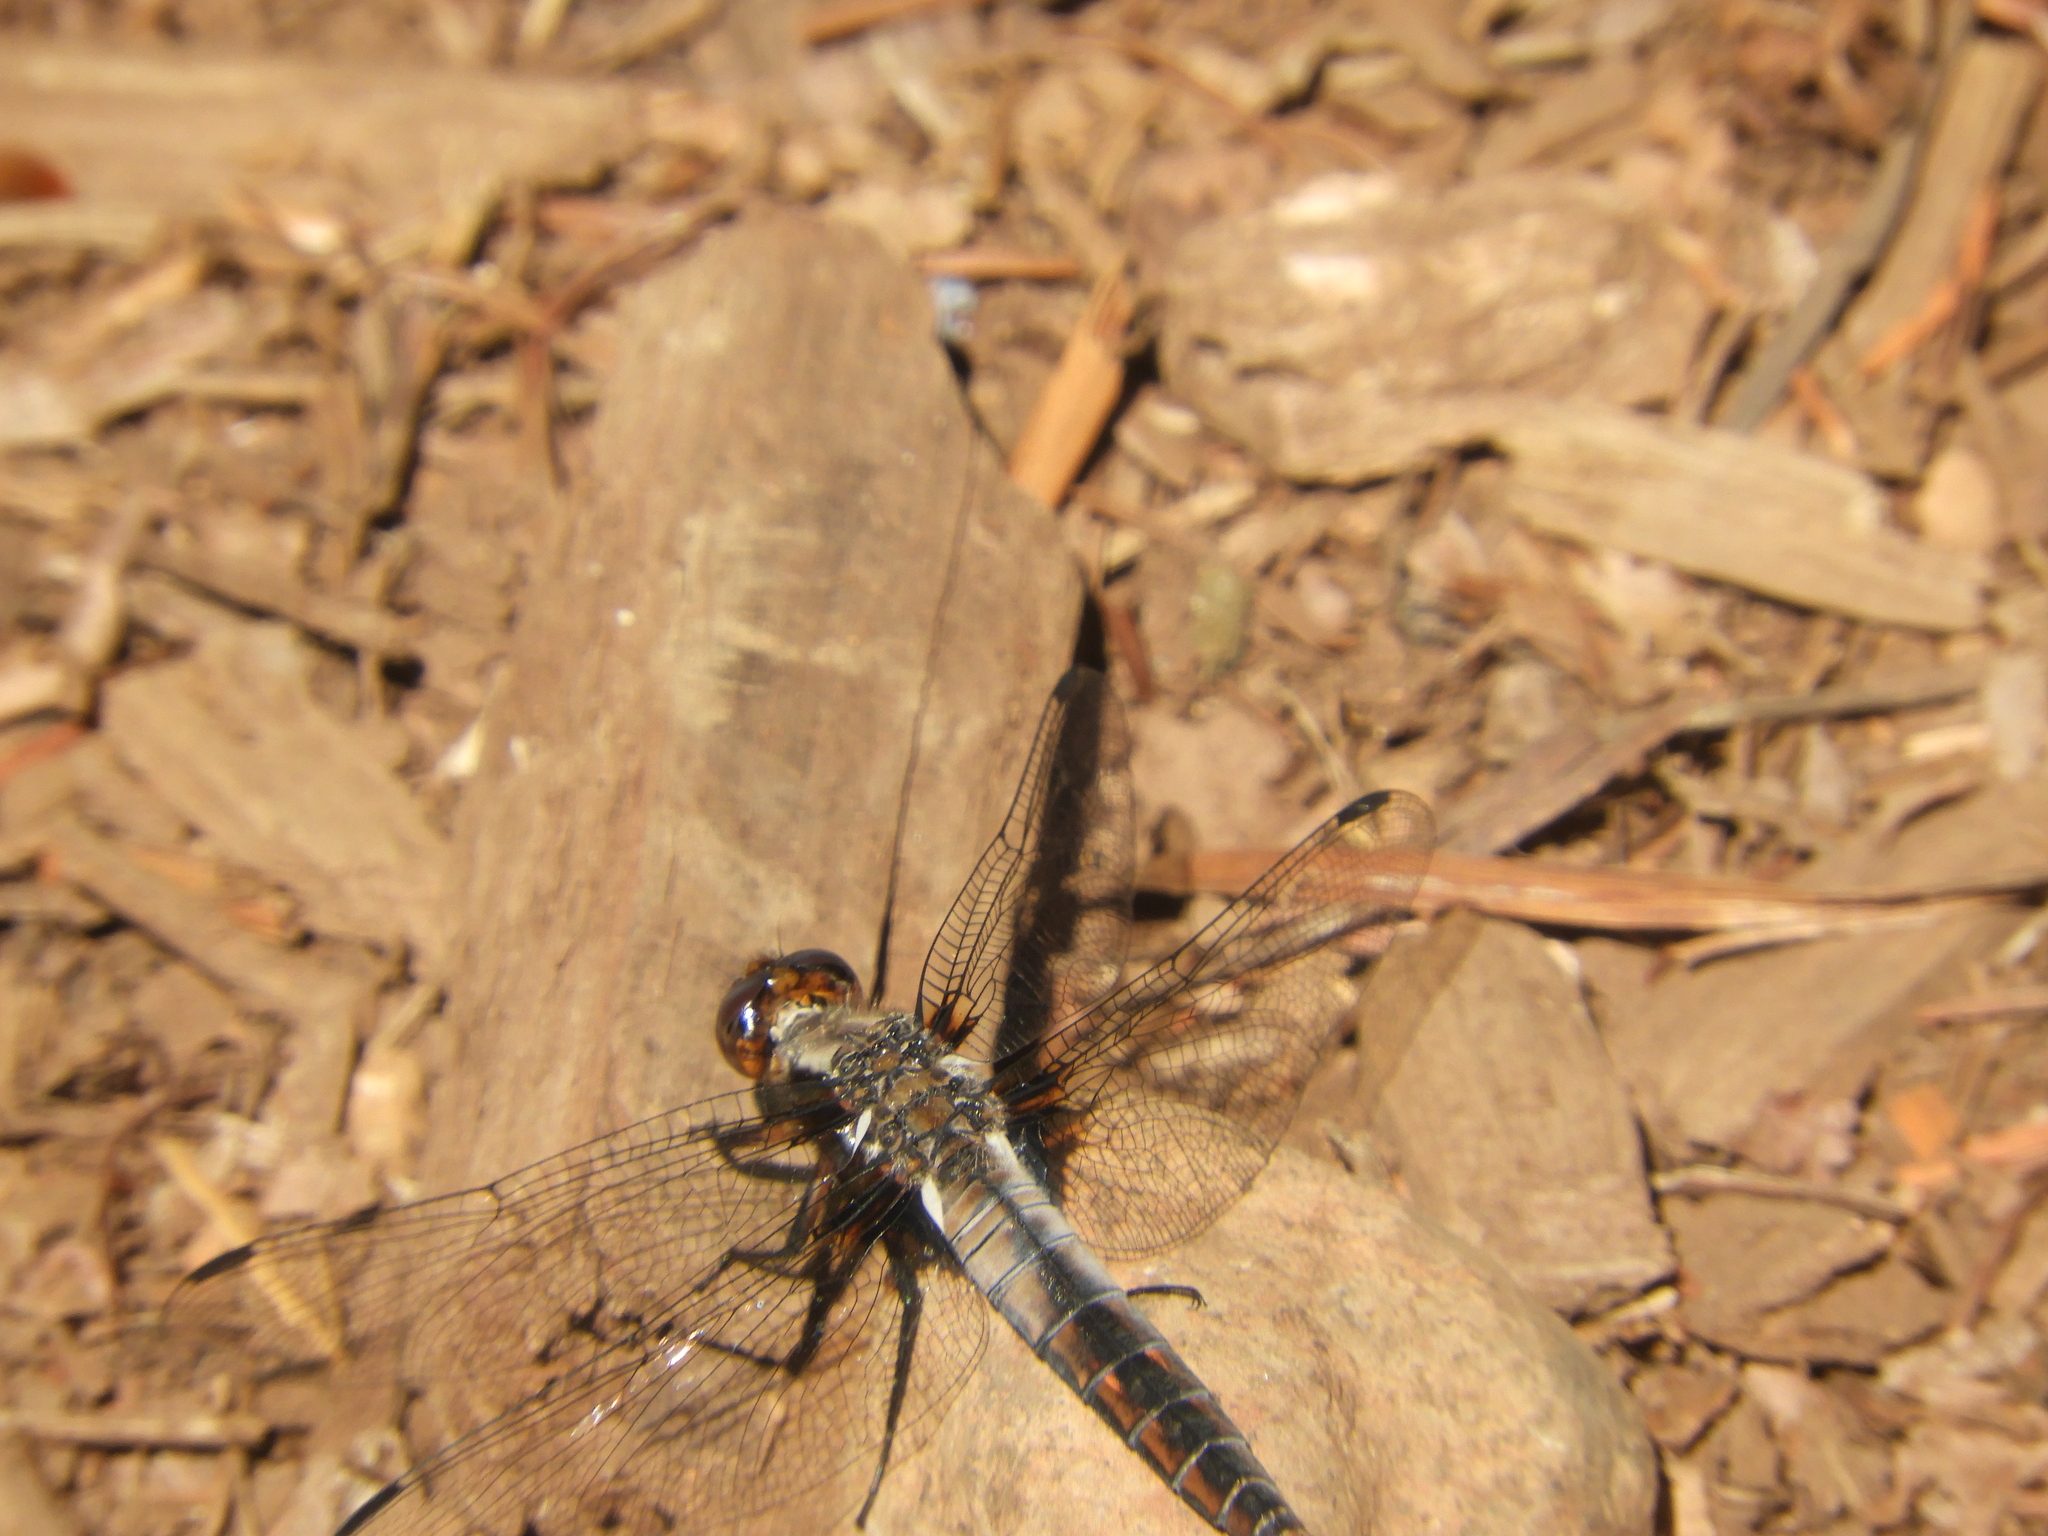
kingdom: Animalia
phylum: Arthropoda
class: Insecta
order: Odonata
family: Libellulidae
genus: Ladona
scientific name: Ladona julia
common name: Chalk-fronted corporal
